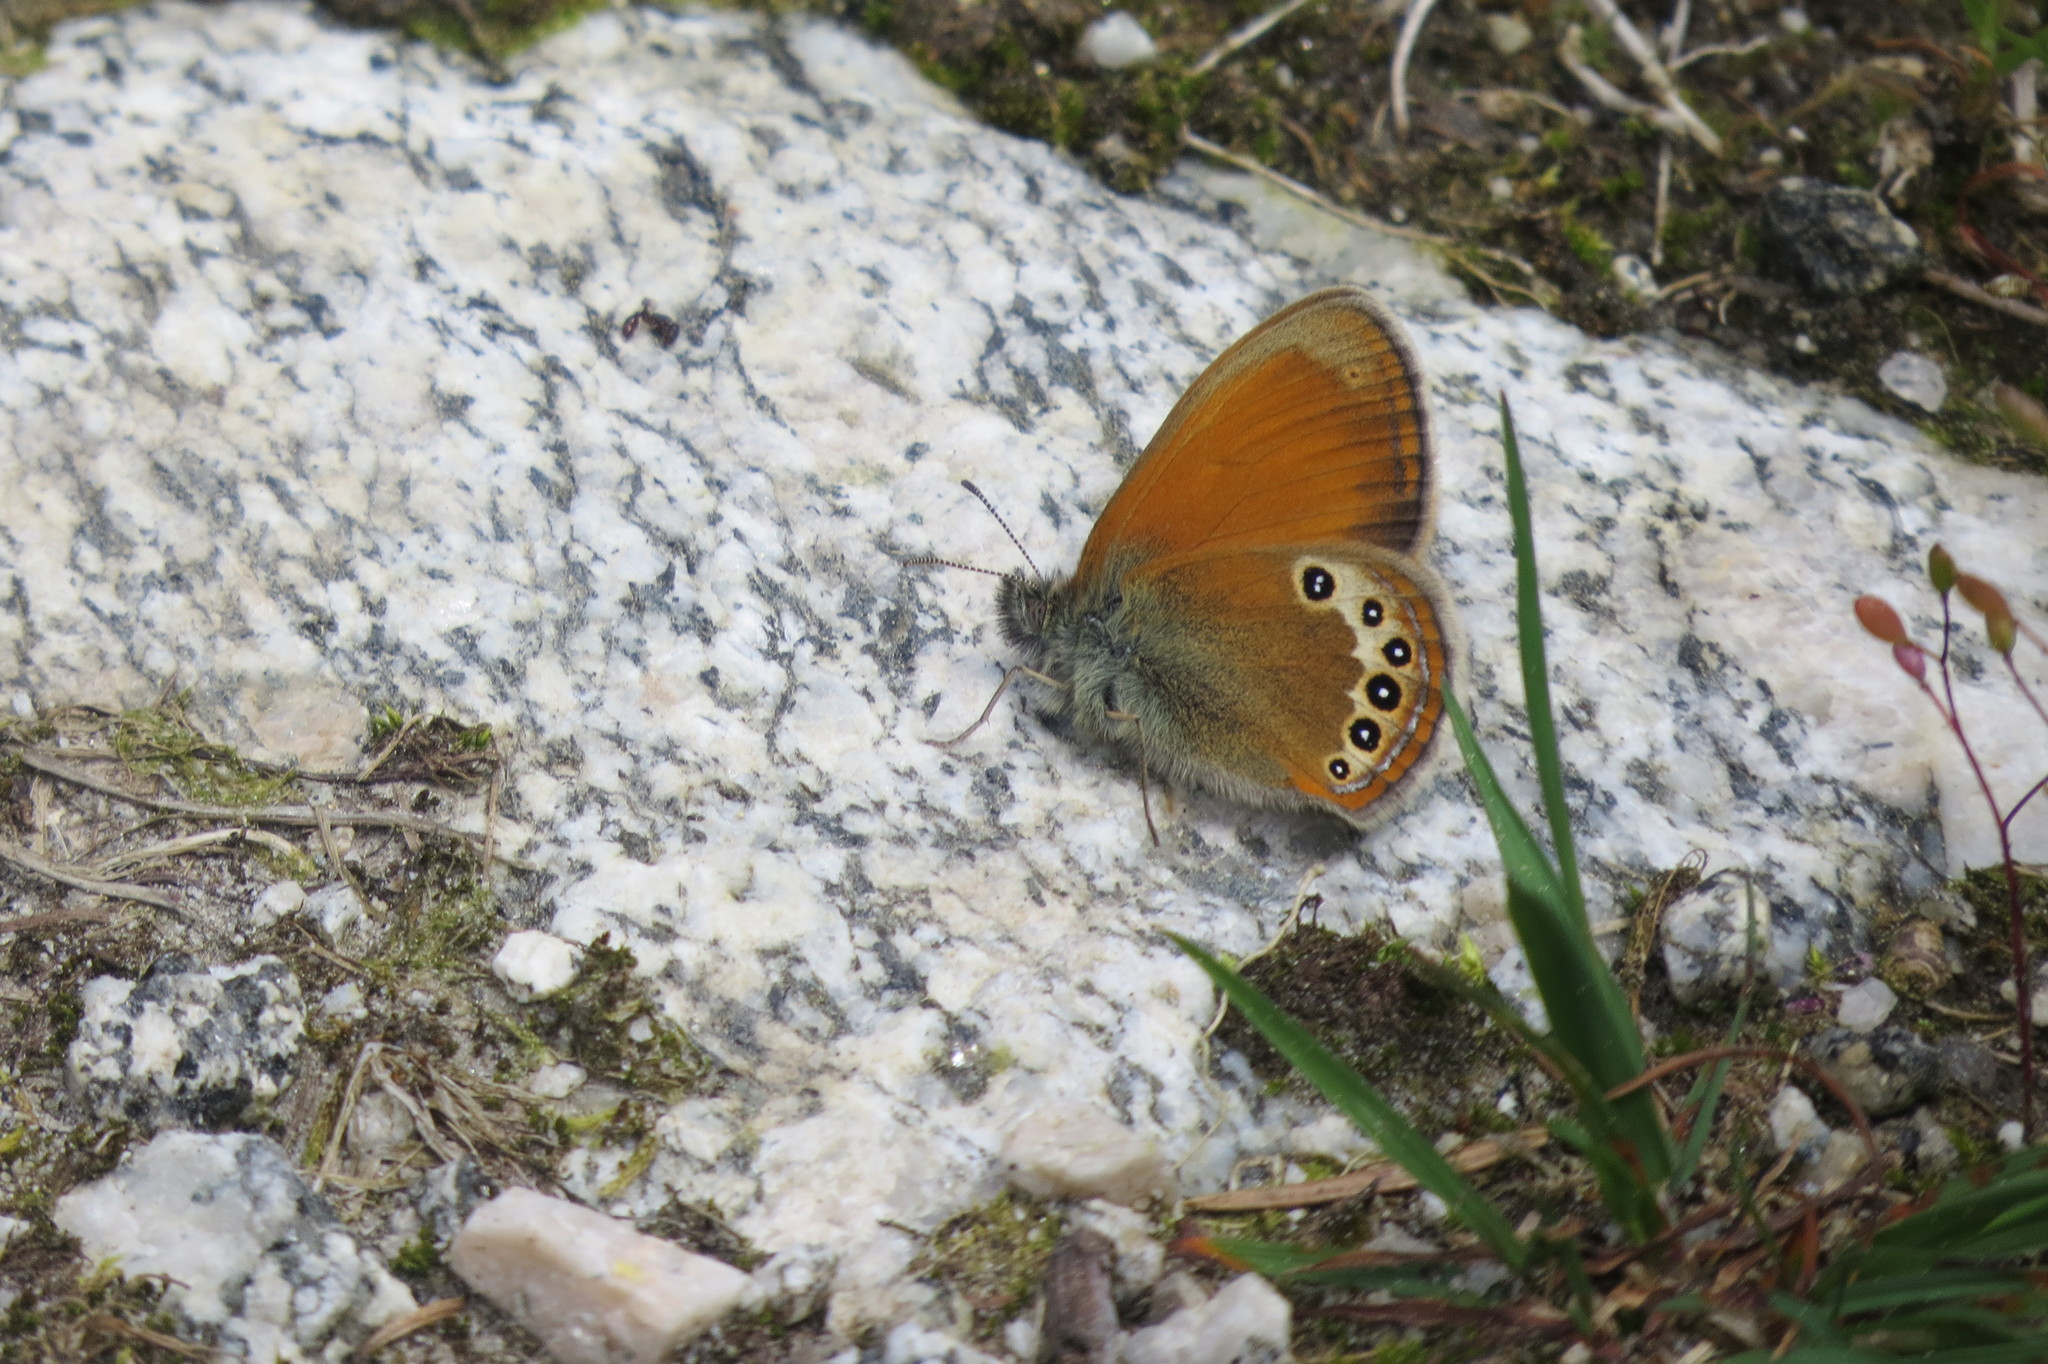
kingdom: Animalia
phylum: Arthropoda
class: Insecta
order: Lepidoptera
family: Nymphalidae
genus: Coenonympha
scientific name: Coenonympha
